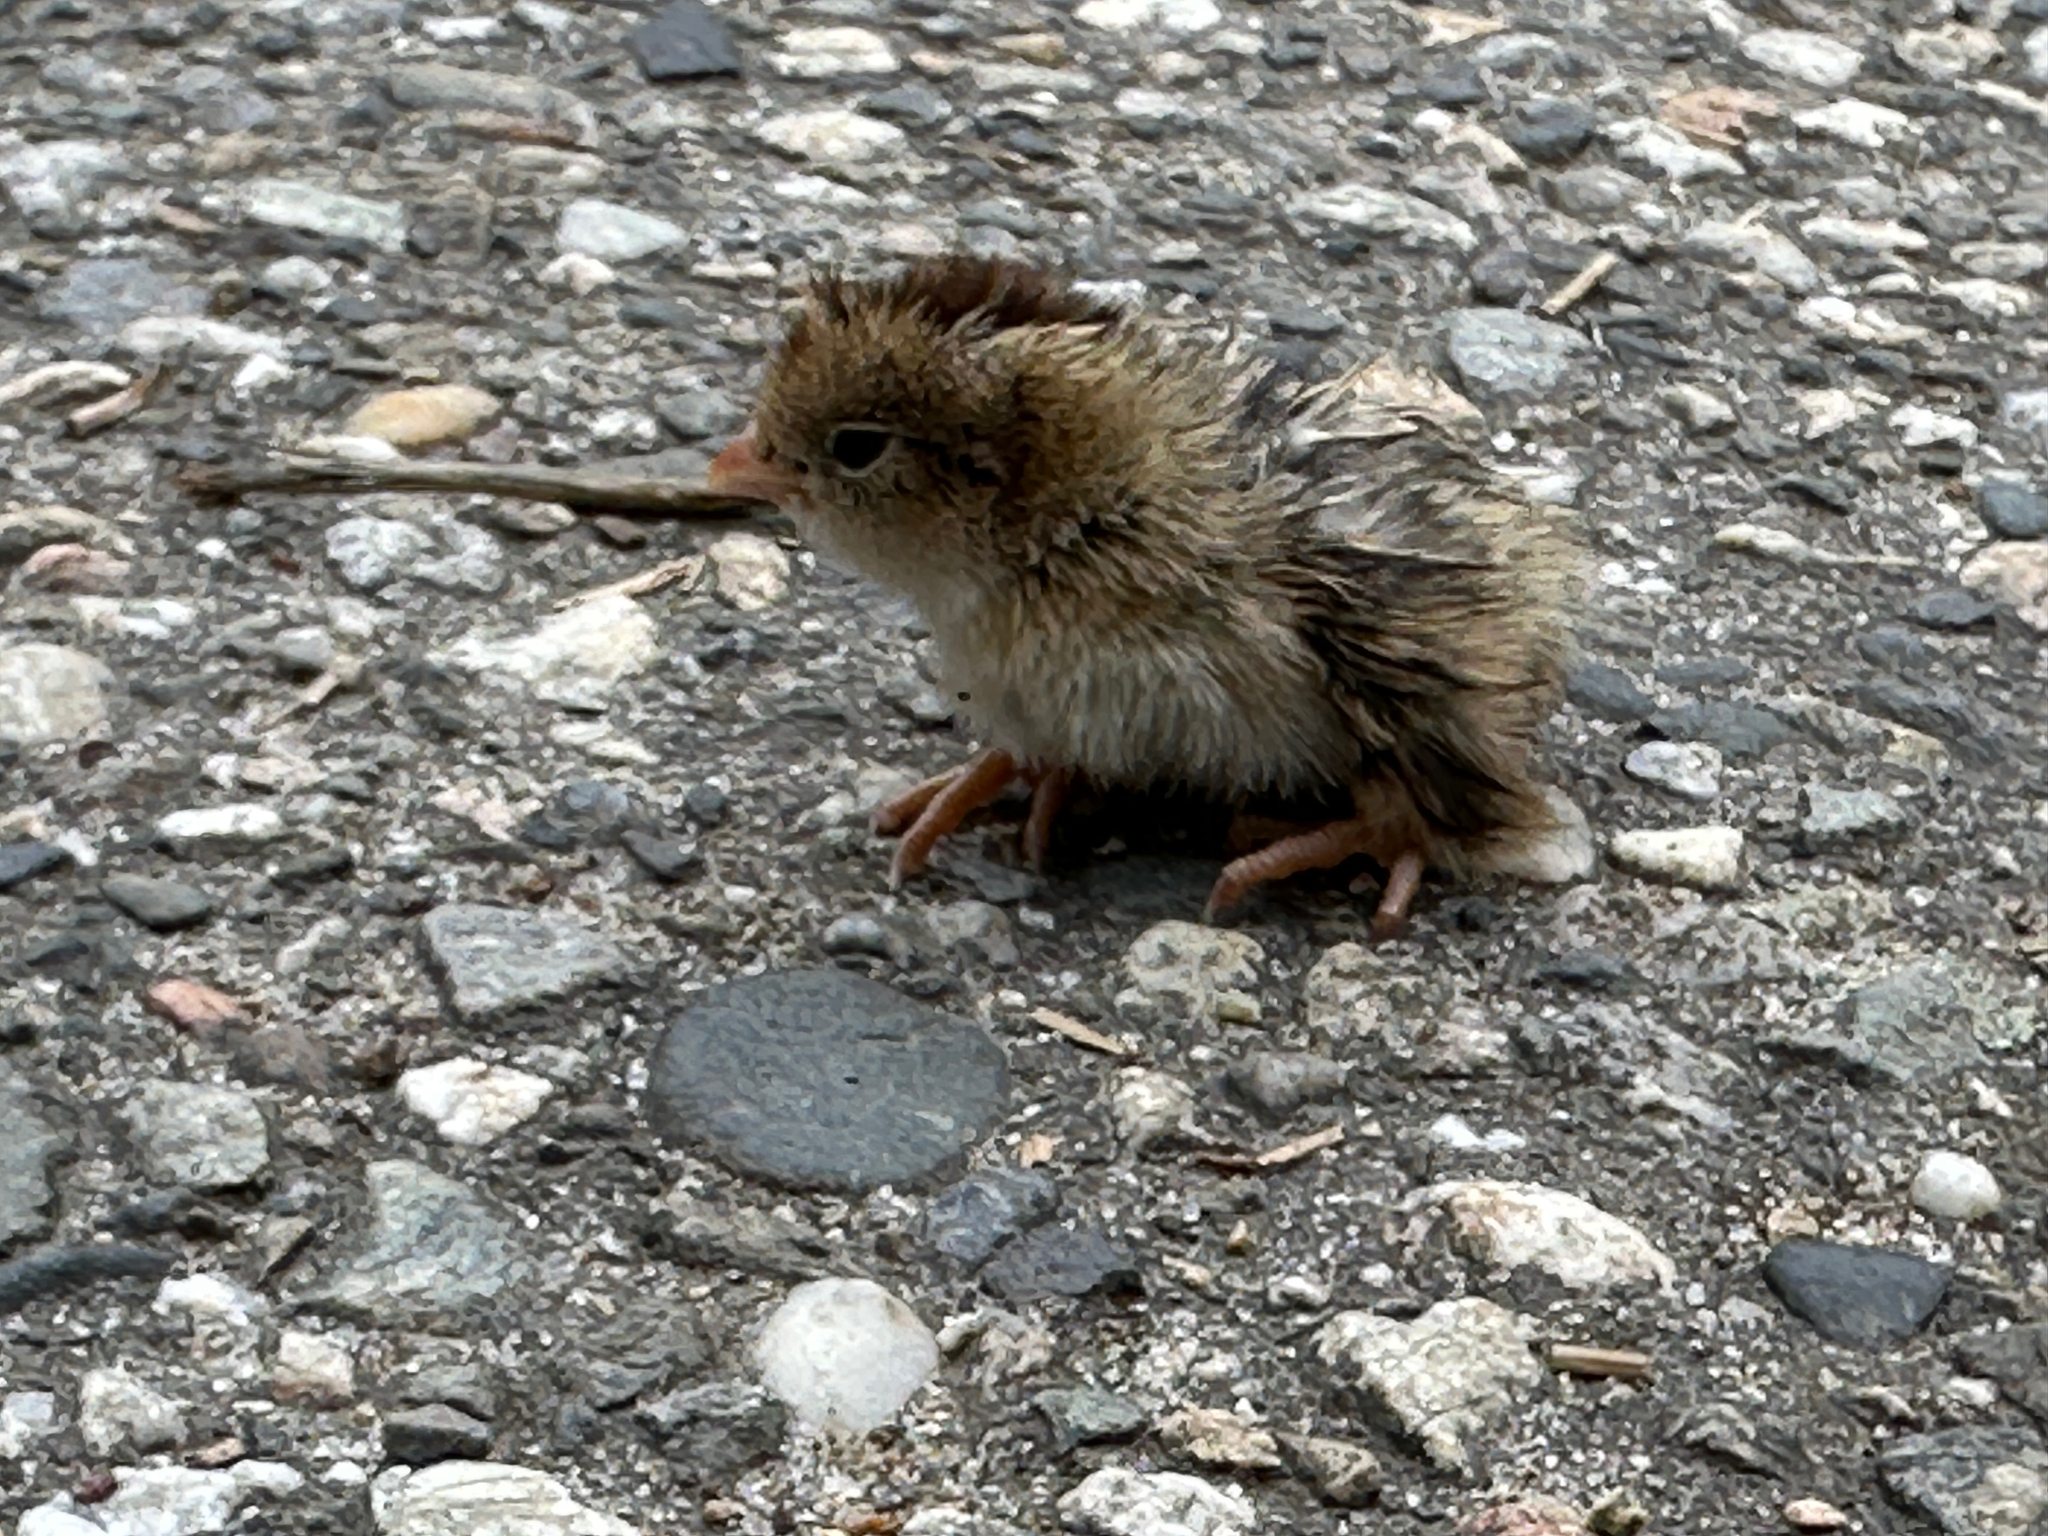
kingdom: Animalia
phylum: Chordata
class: Aves
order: Galliformes
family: Odontophoridae
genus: Callipepla
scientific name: Callipepla californica
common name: California quail
